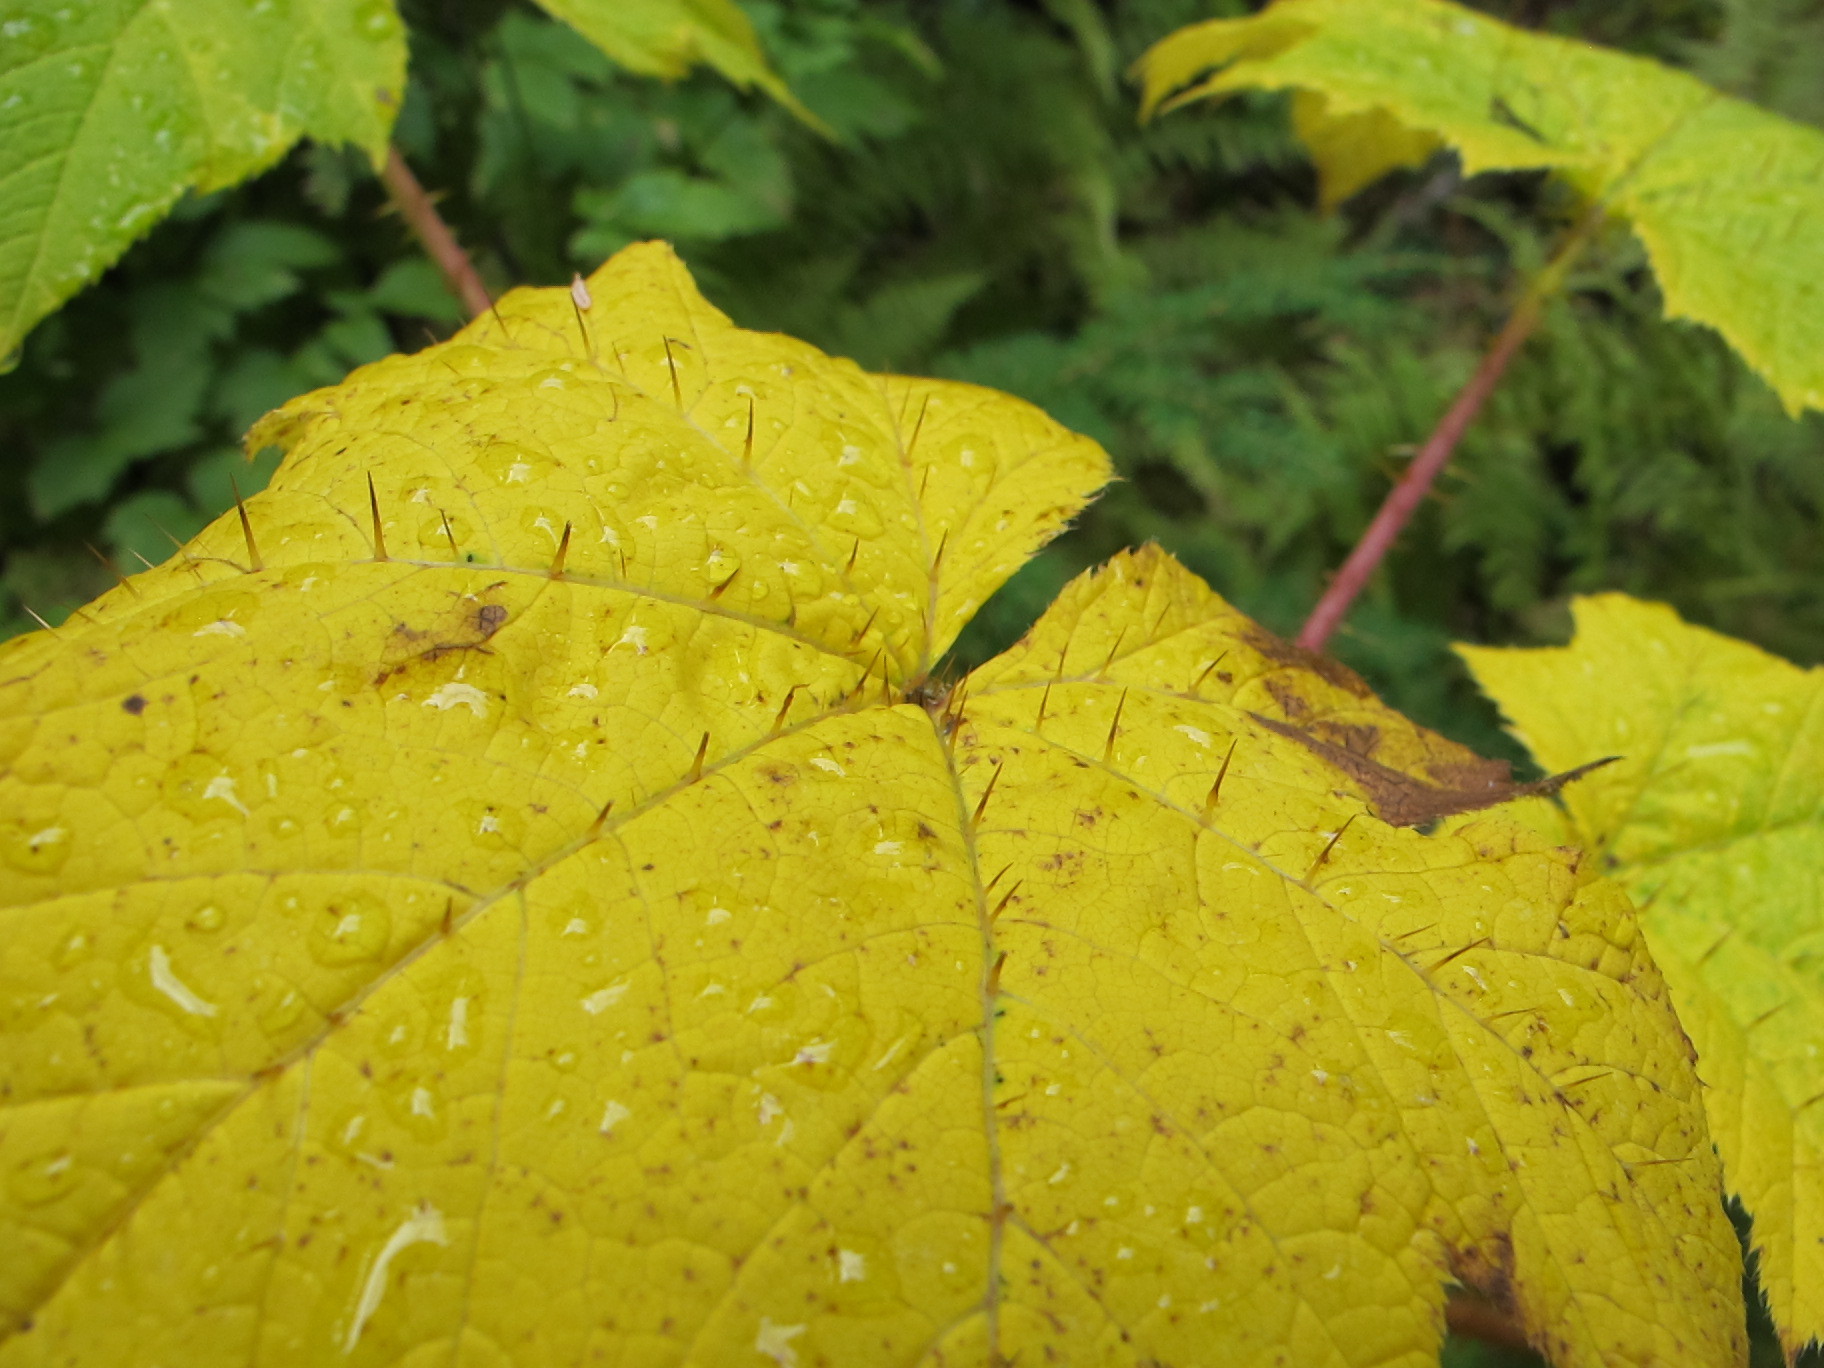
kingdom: Plantae
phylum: Tracheophyta
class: Magnoliopsida
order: Apiales
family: Araliaceae
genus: Oplopanax
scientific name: Oplopanax horridus
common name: Devil's walking-stick
